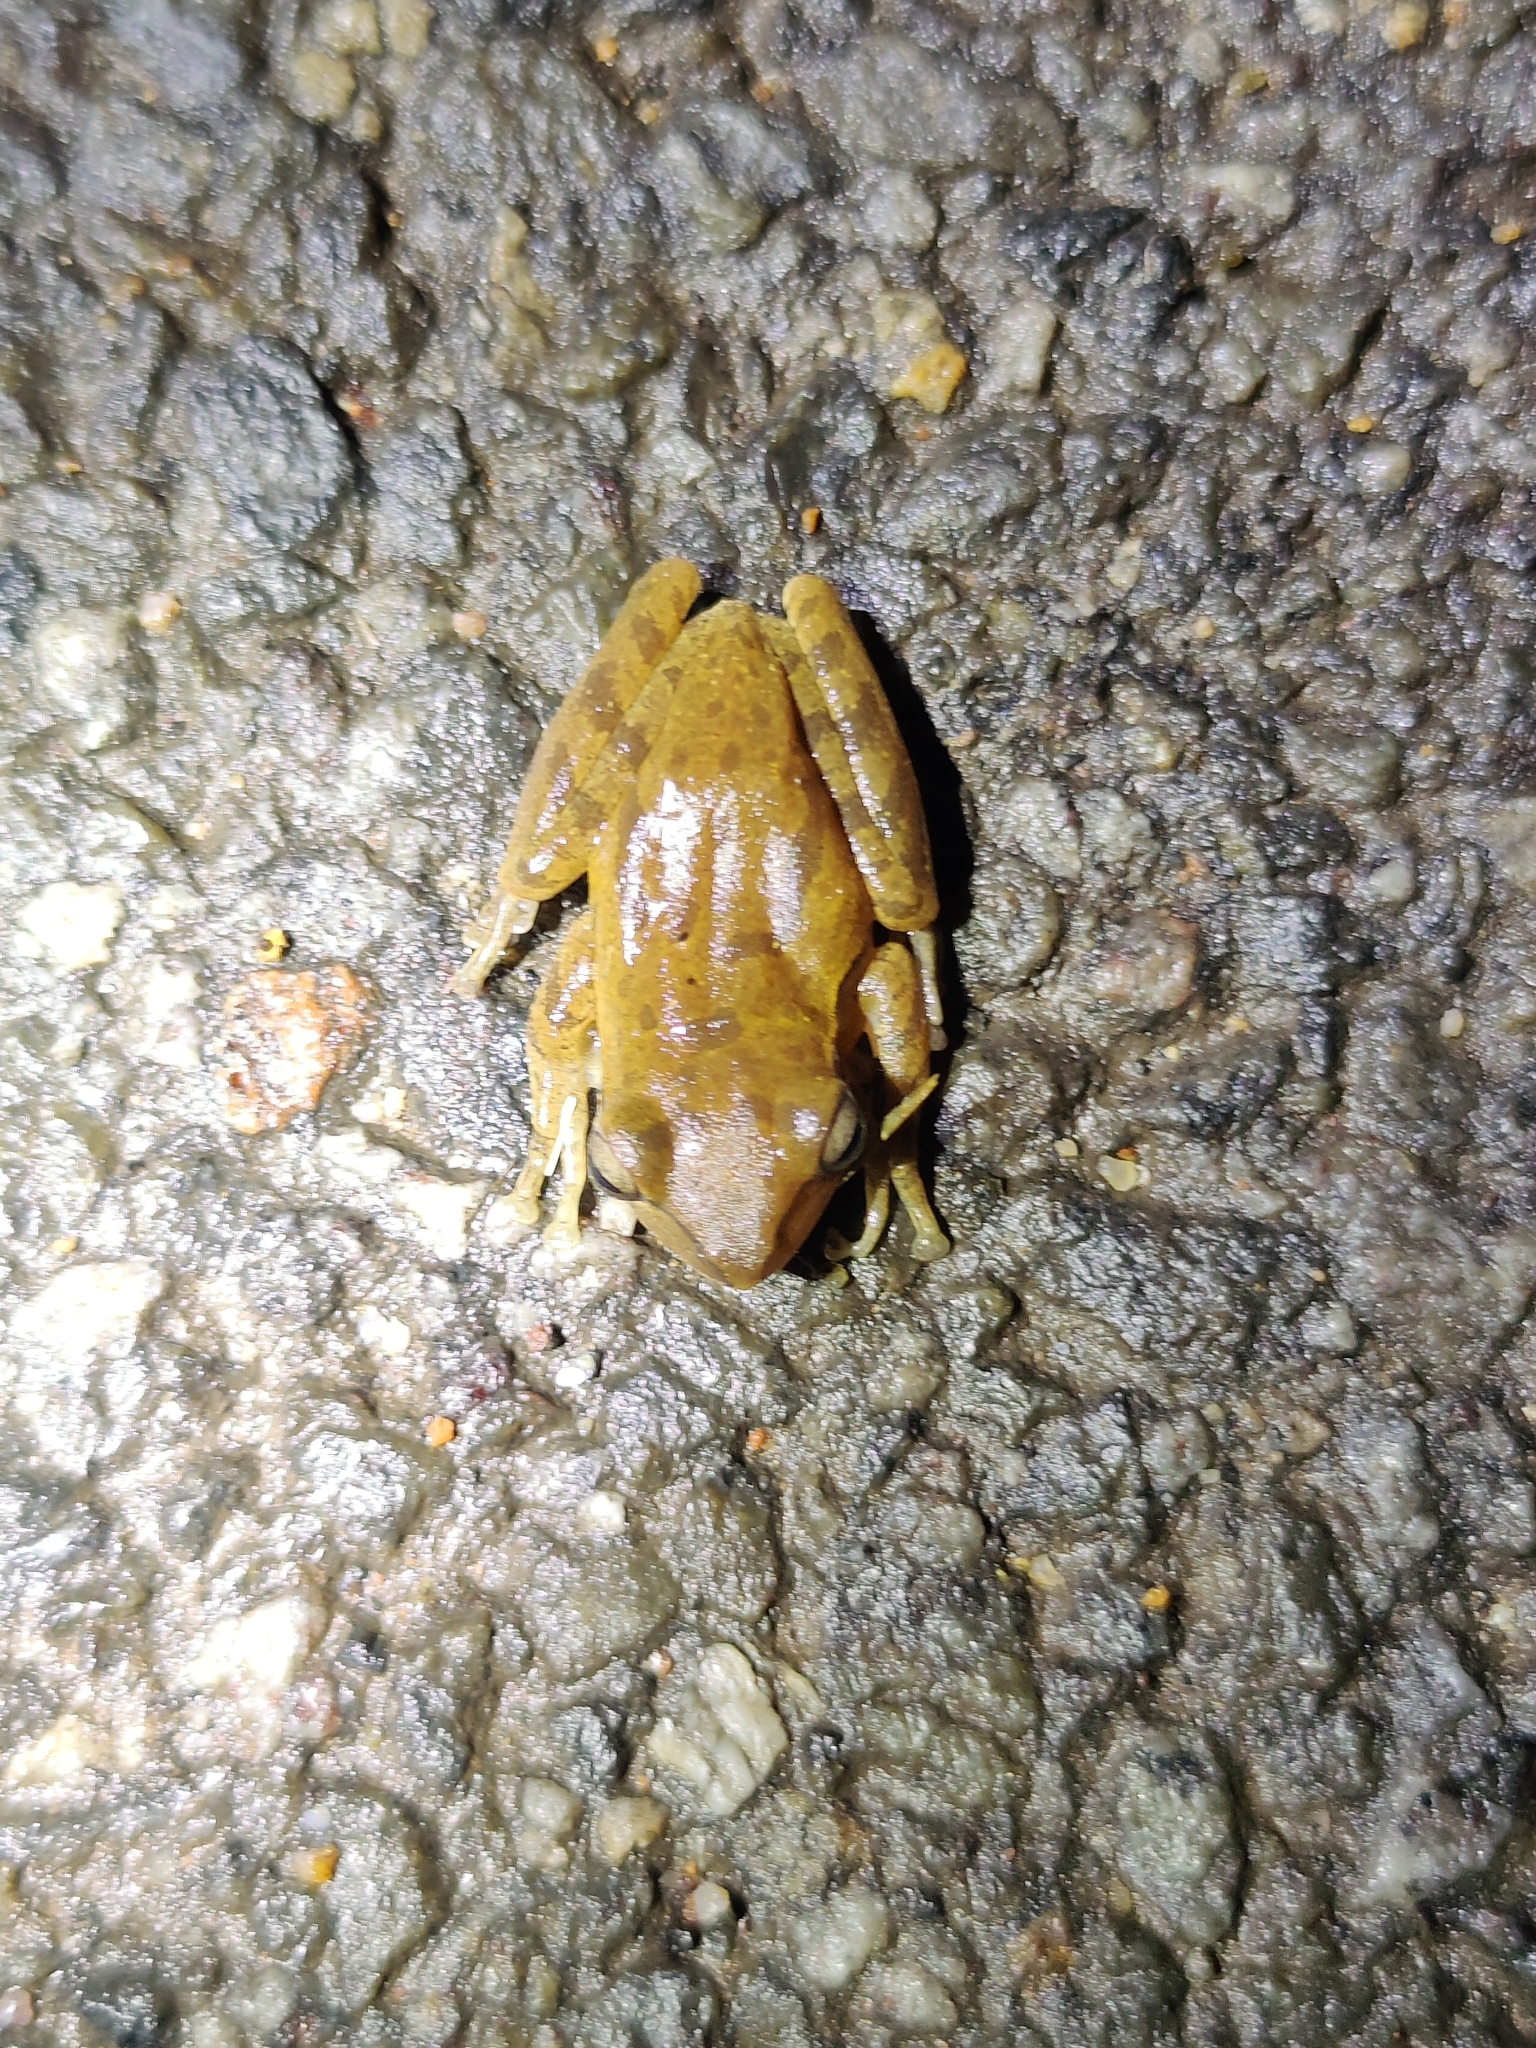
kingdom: Animalia
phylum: Chordata
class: Amphibia
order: Anura
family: Rhacophoridae
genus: Polypedates
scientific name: Polypedates maculatus
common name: Himalayan tree frog
